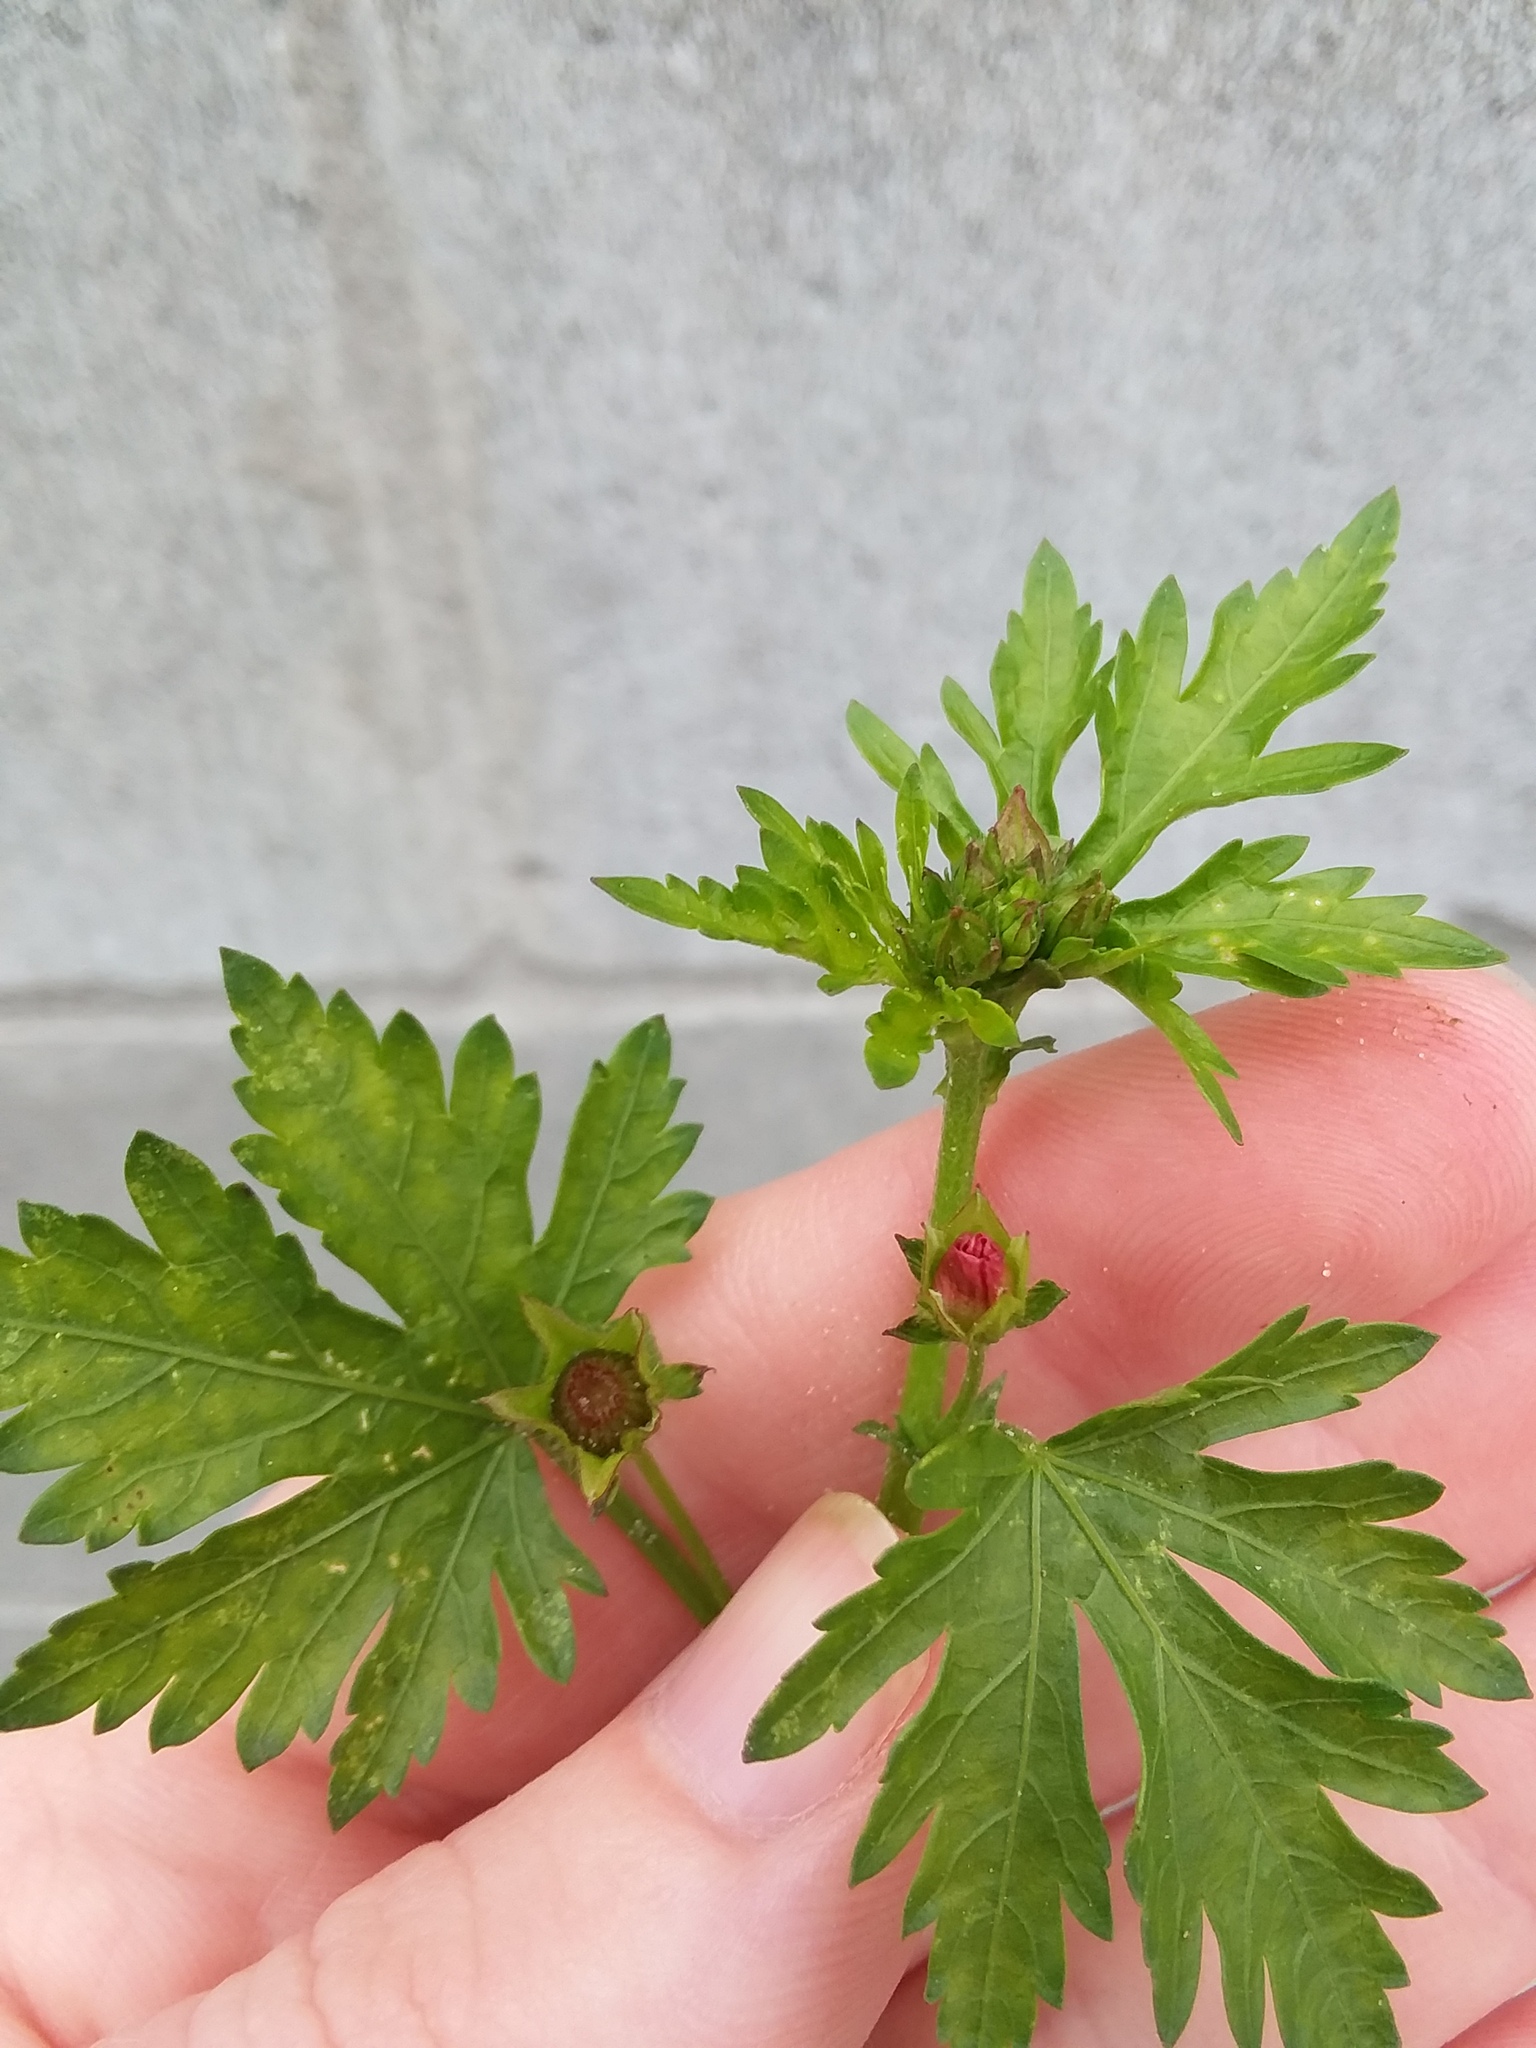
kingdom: Plantae
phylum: Tracheophyta
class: Magnoliopsida
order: Malvales
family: Malvaceae
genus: Modiola
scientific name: Modiola caroliniana
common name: Carolina bristlemallow
